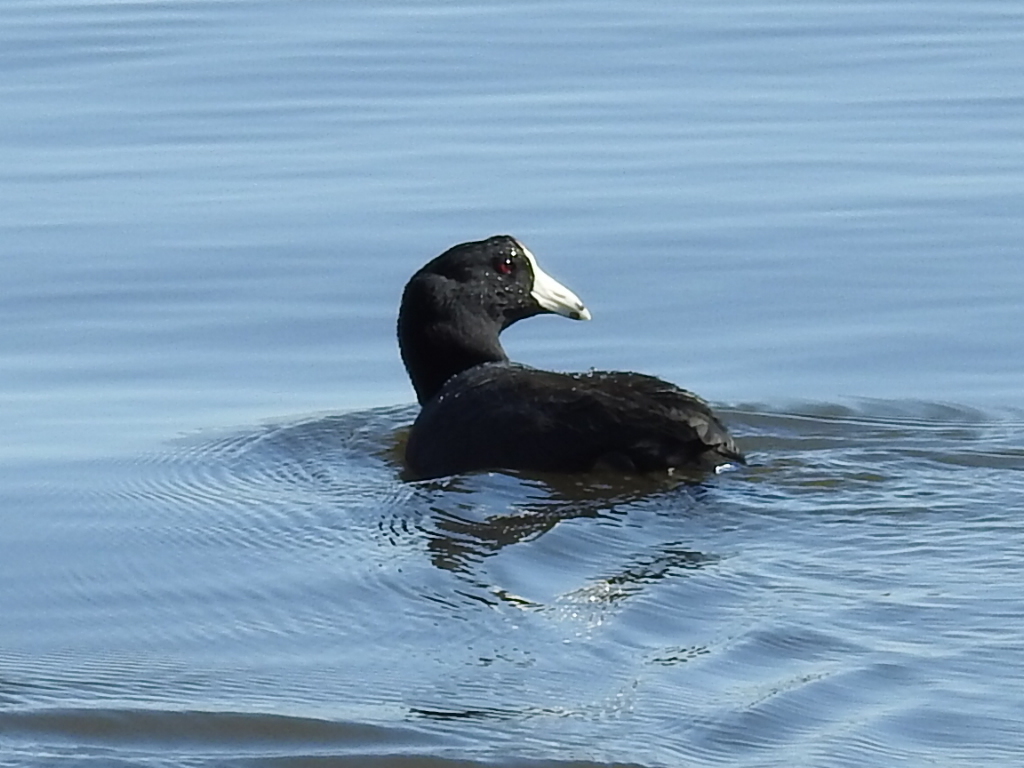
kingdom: Animalia
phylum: Chordata
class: Aves
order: Gruiformes
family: Rallidae
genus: Fulica
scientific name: Fulica americana
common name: American coot
